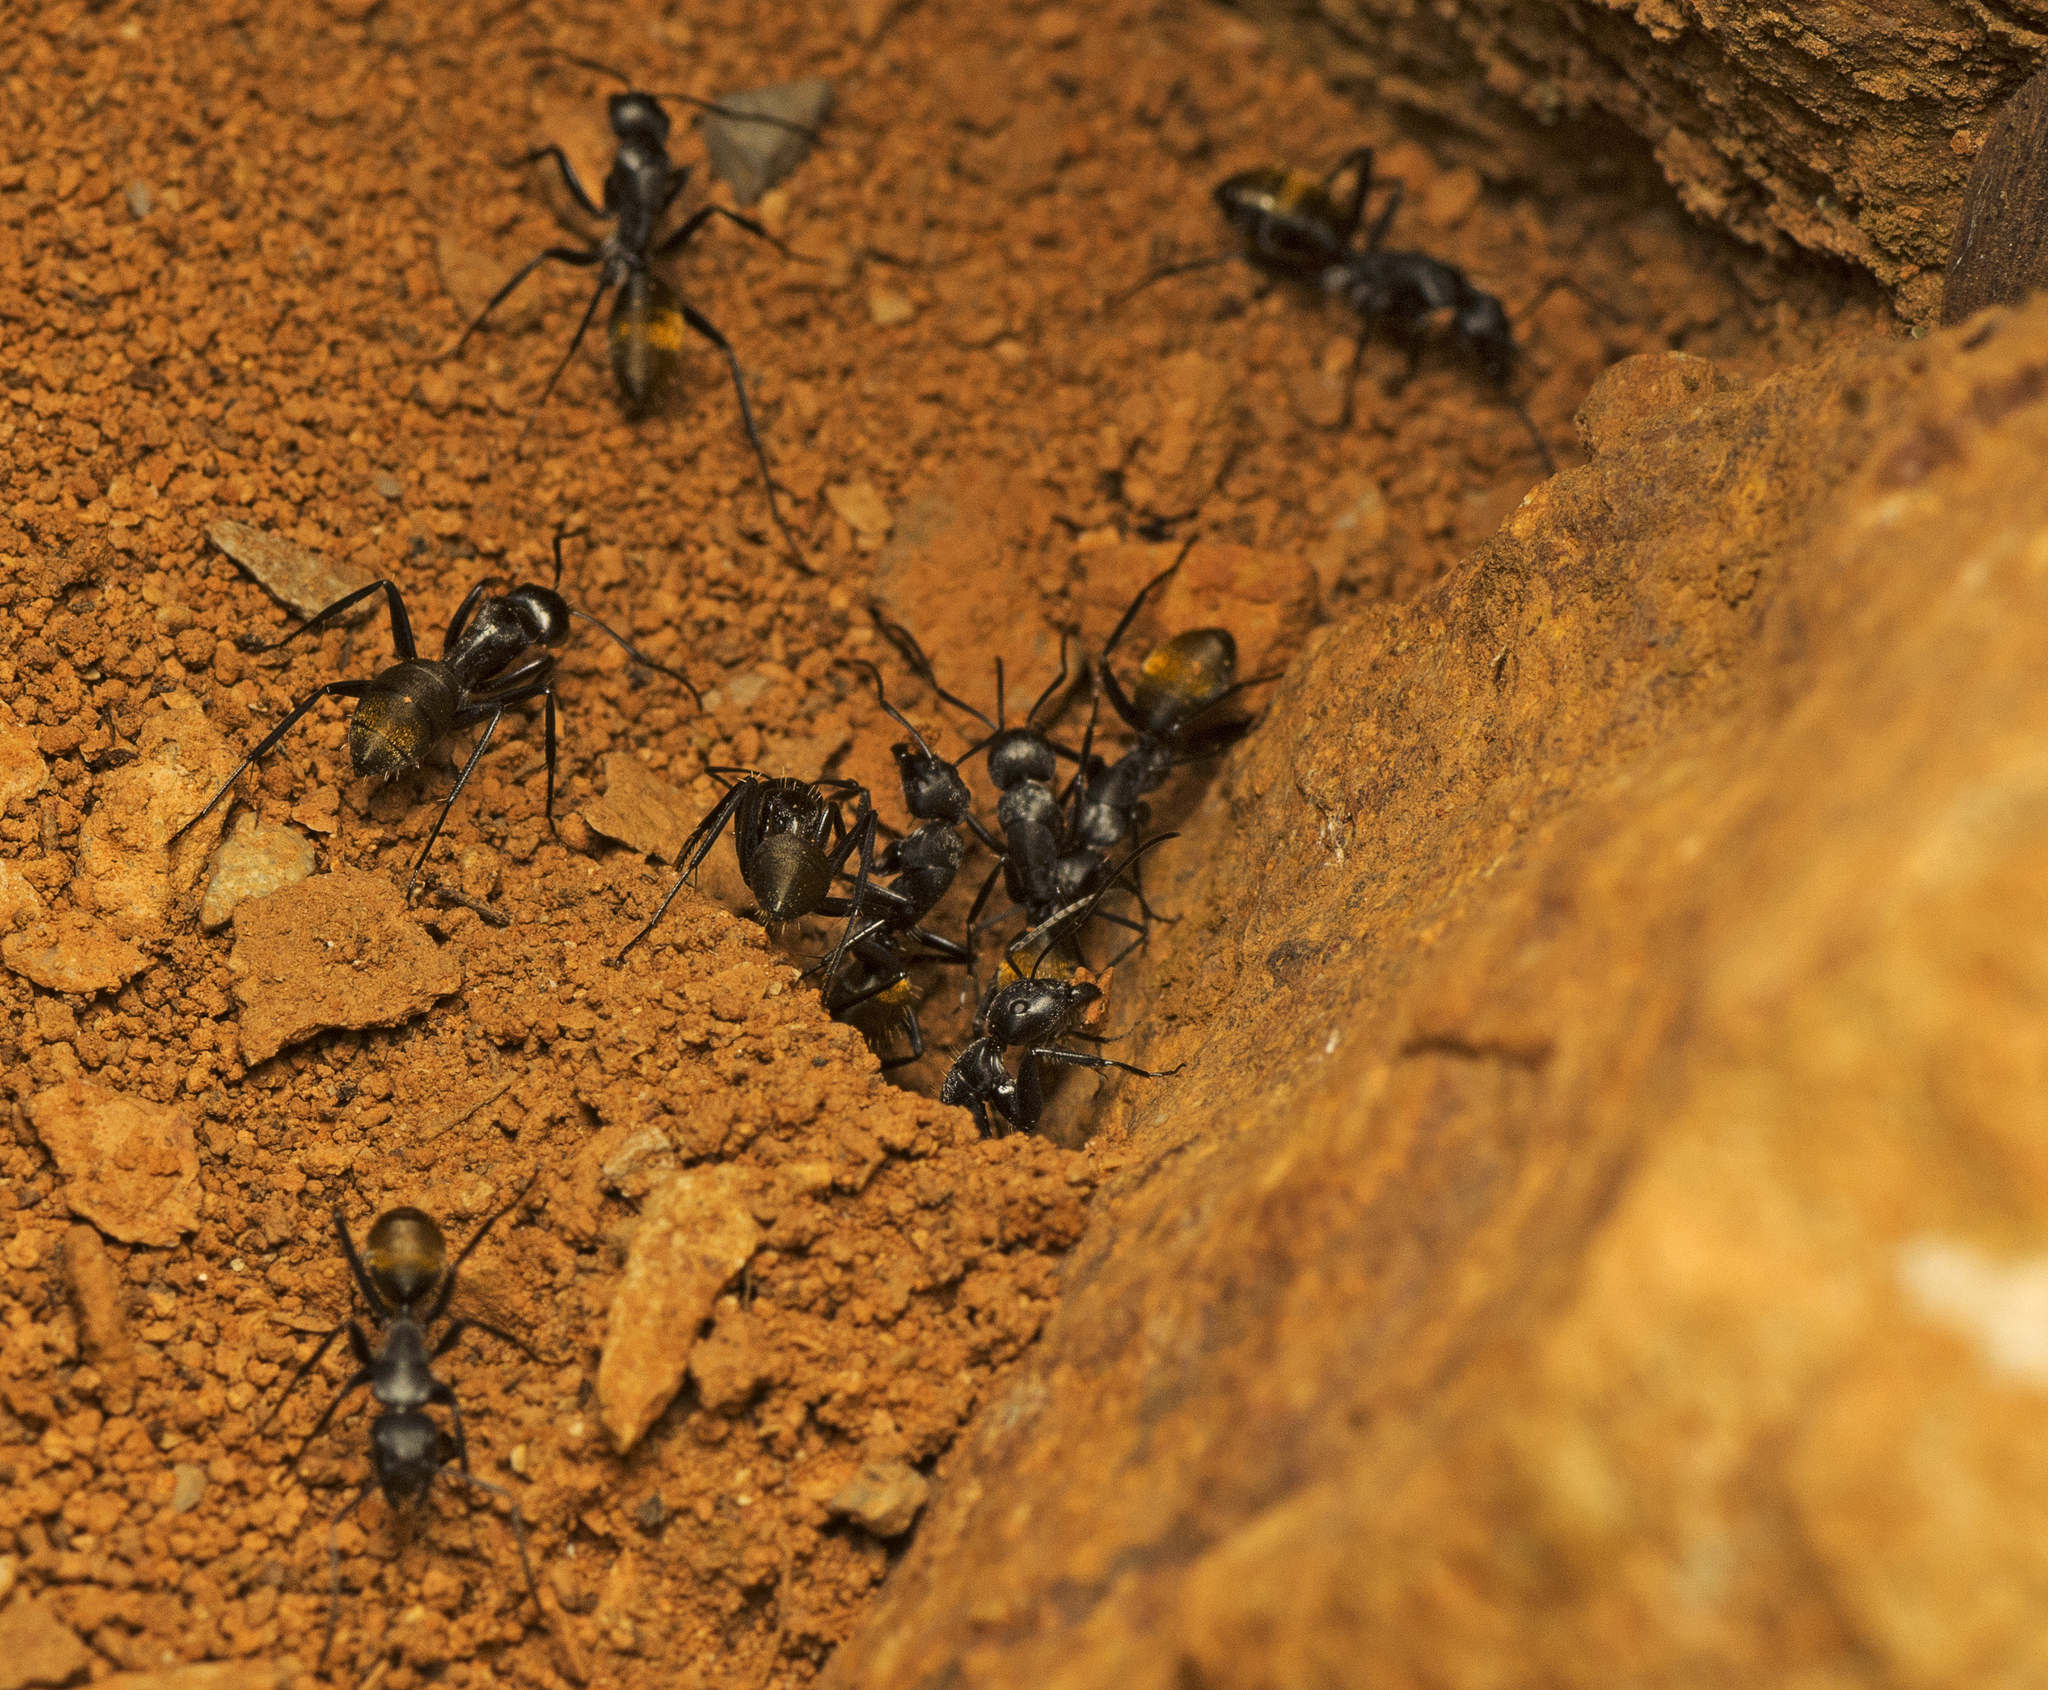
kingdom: Animalia
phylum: Arthropoda
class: Insecta
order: Hymenoptera
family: Formicidae
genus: Camponotus
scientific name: Camponotus aeneopilosus
